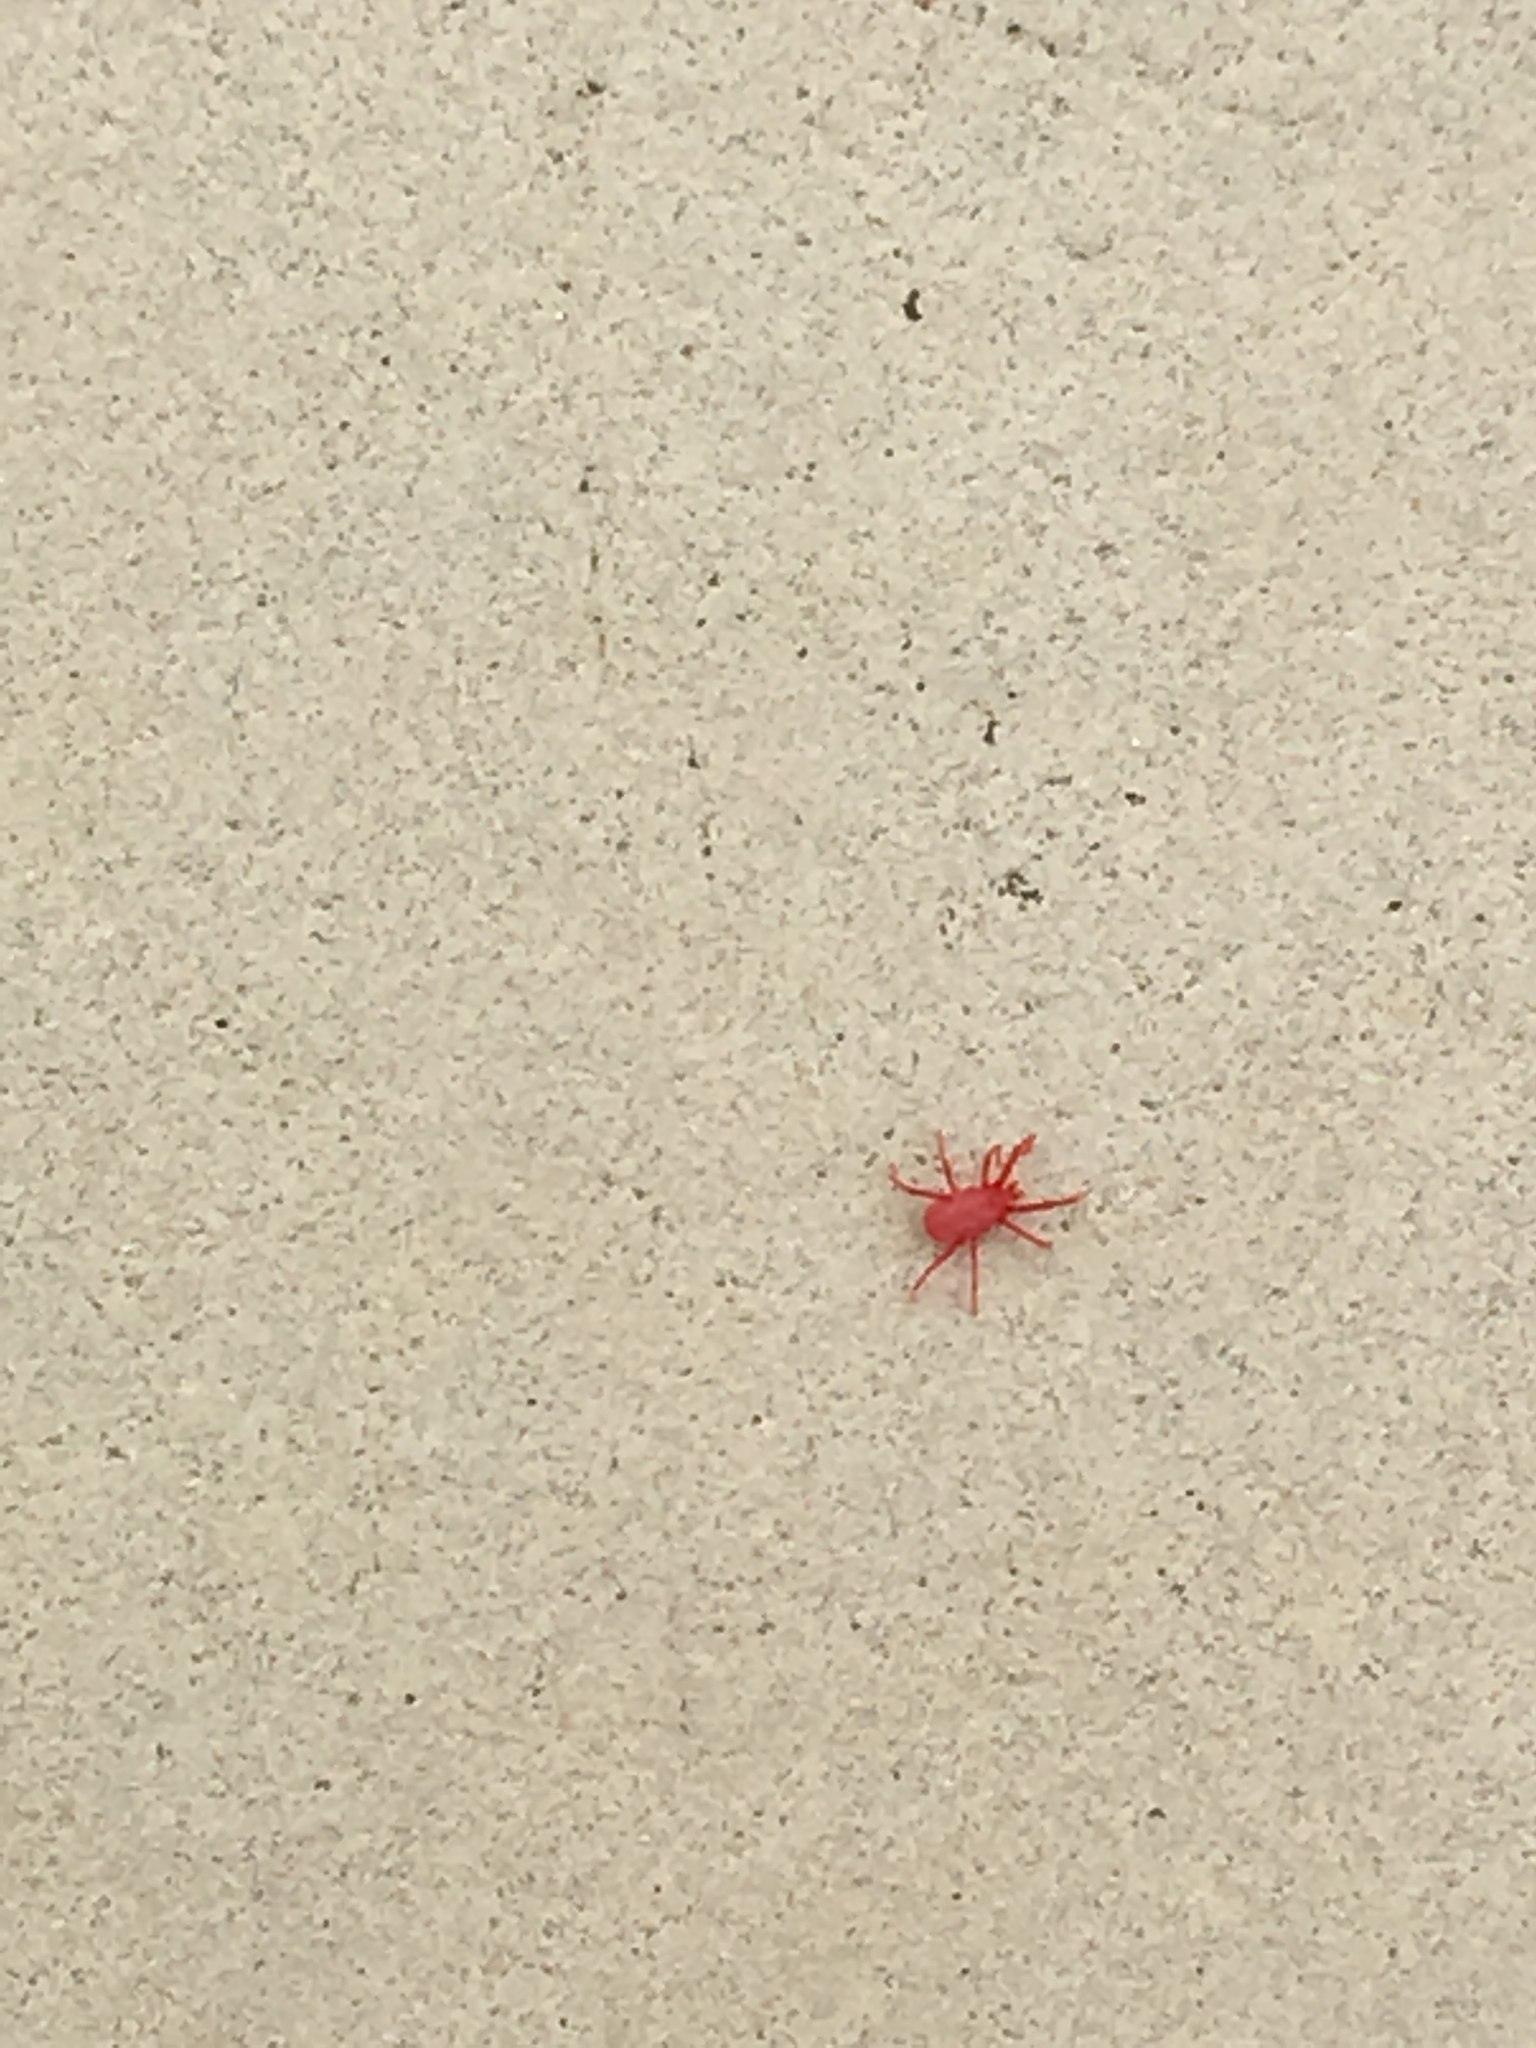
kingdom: Animalia
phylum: Arthropoda
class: Arachnida
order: Trombidiformes
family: Erythraeidae
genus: Balaustium
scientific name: Balaustium murorum
